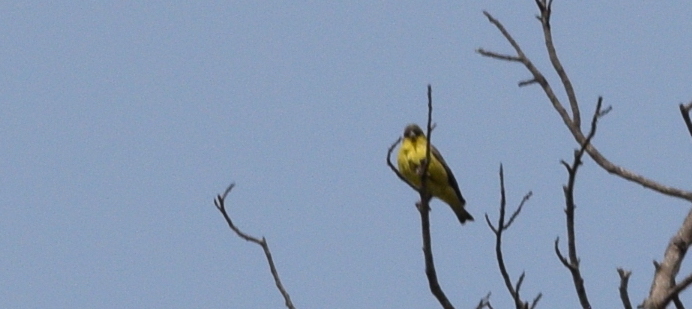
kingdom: Animalia
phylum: Chordata
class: Aves
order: Passeriformes
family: Fringillidae
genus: Spinus
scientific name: Spinus psaltria
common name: Lesser goldfinch
